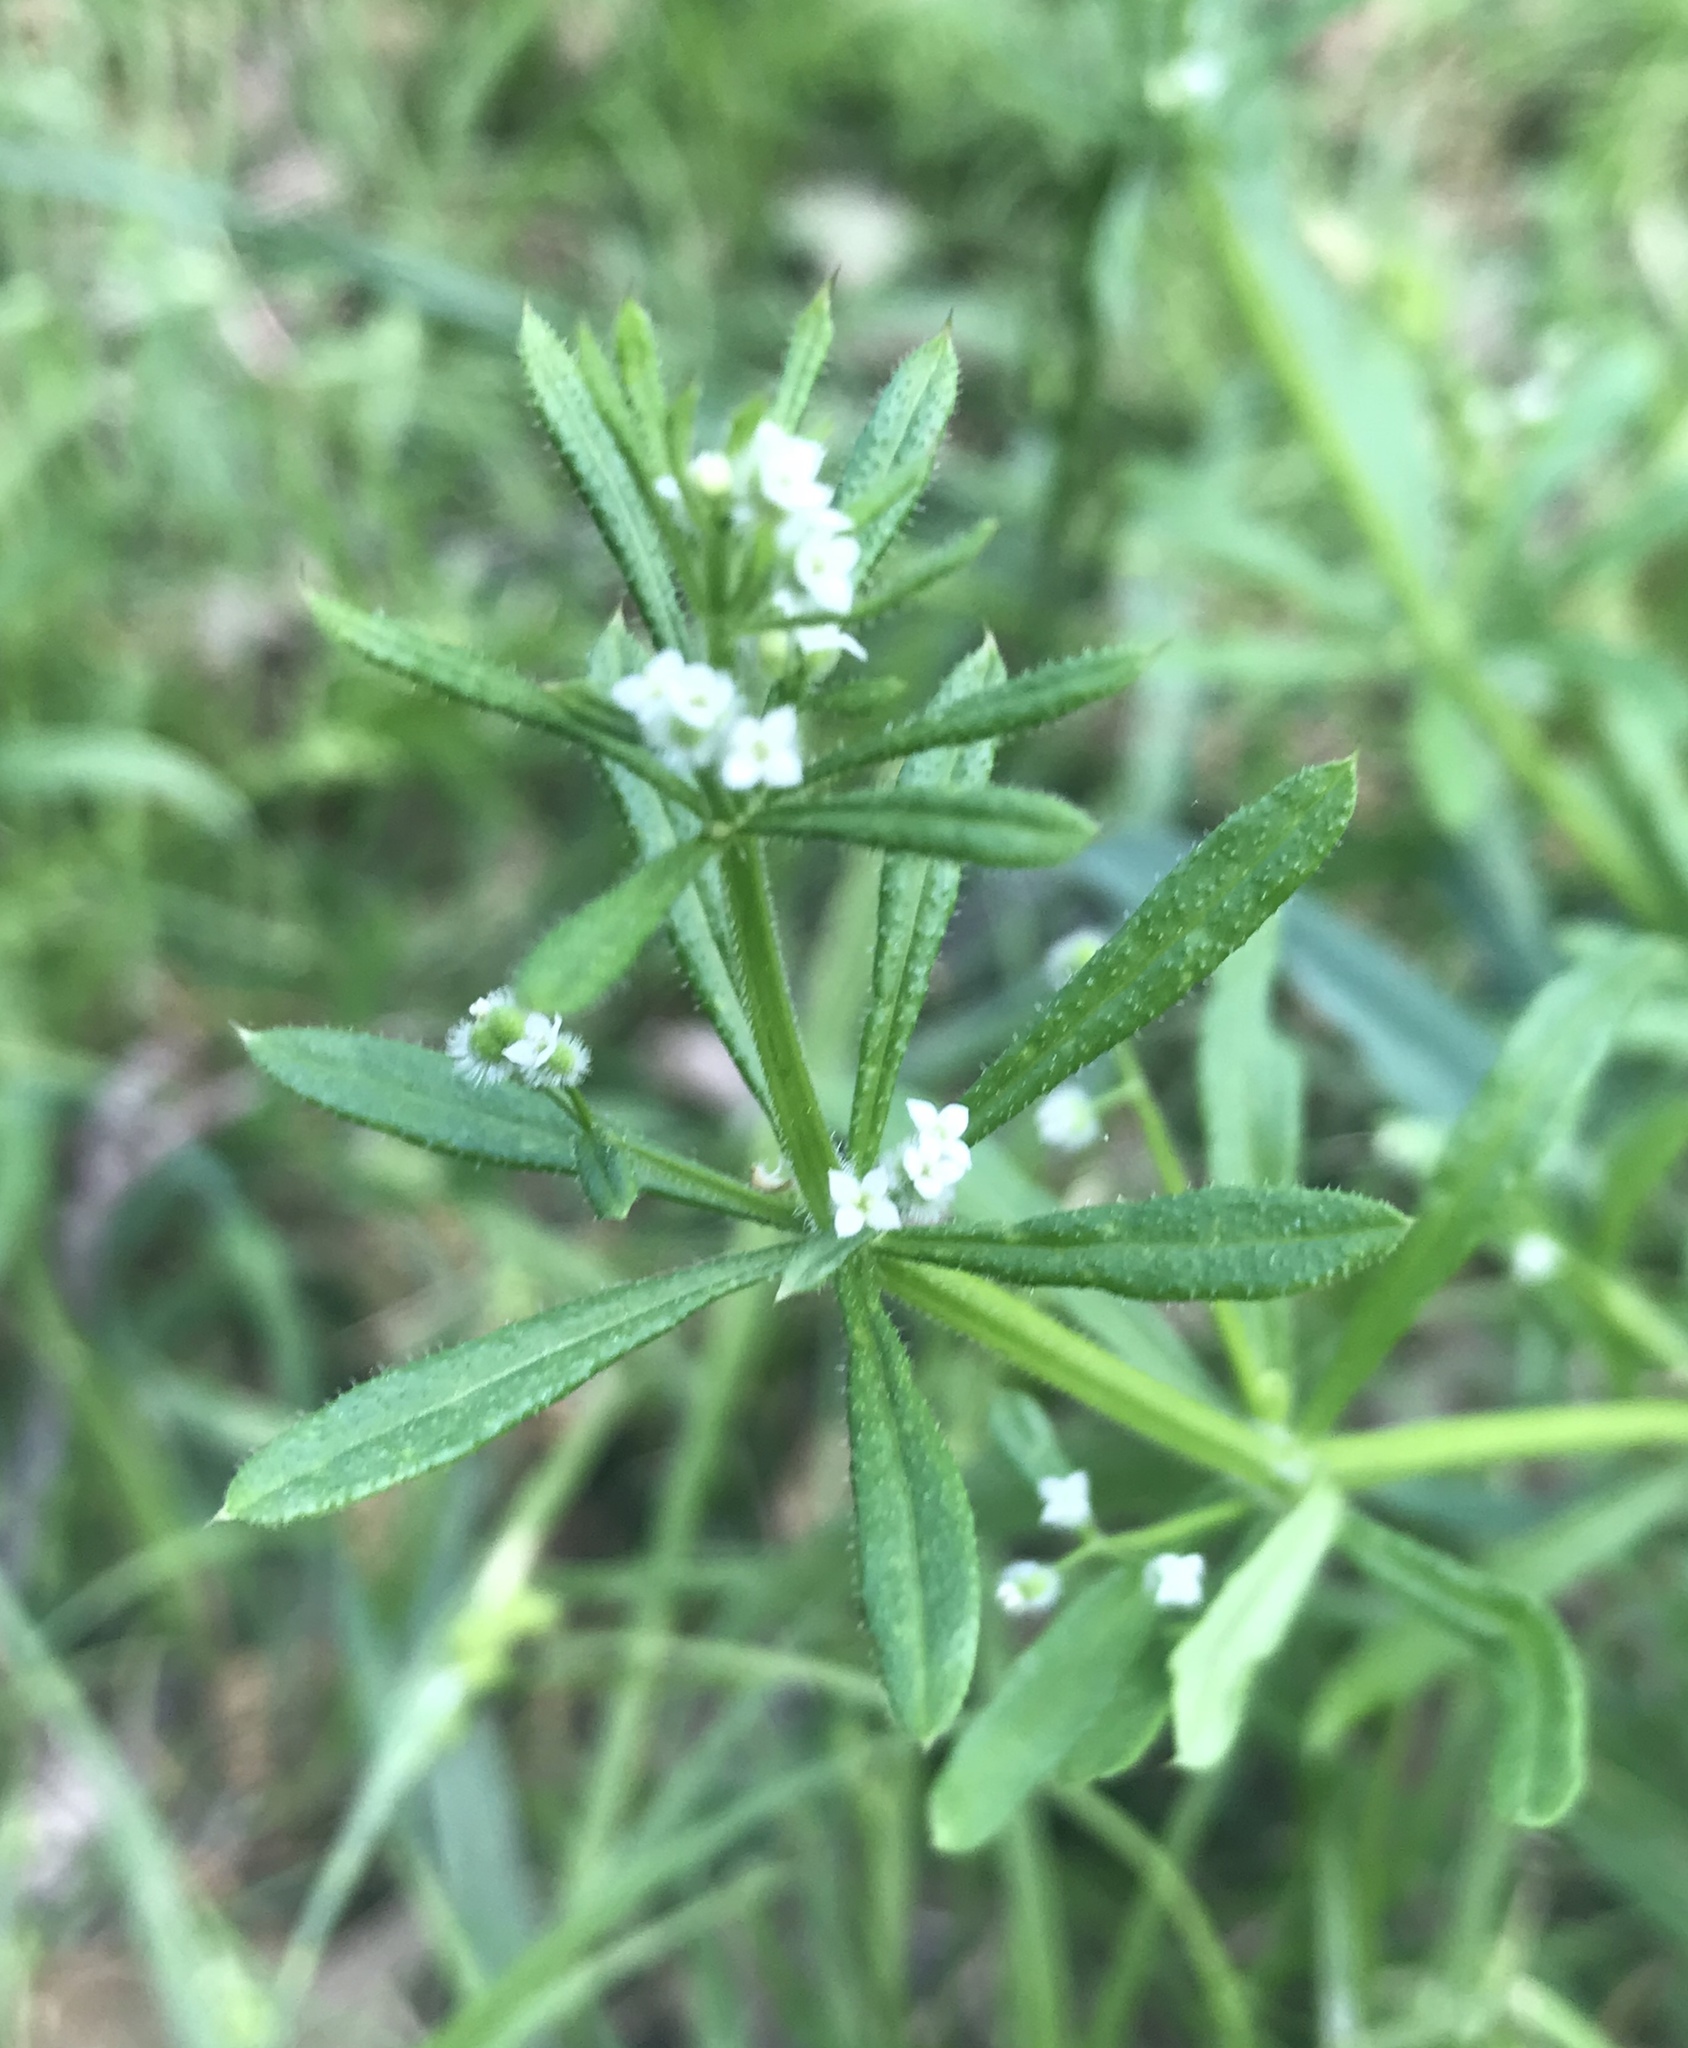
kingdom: Plantae
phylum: Tracheophyta
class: Magnoliopsida
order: Gentianales
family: Rubiaceae
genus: Galium
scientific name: Galium aparine
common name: Cleavers
